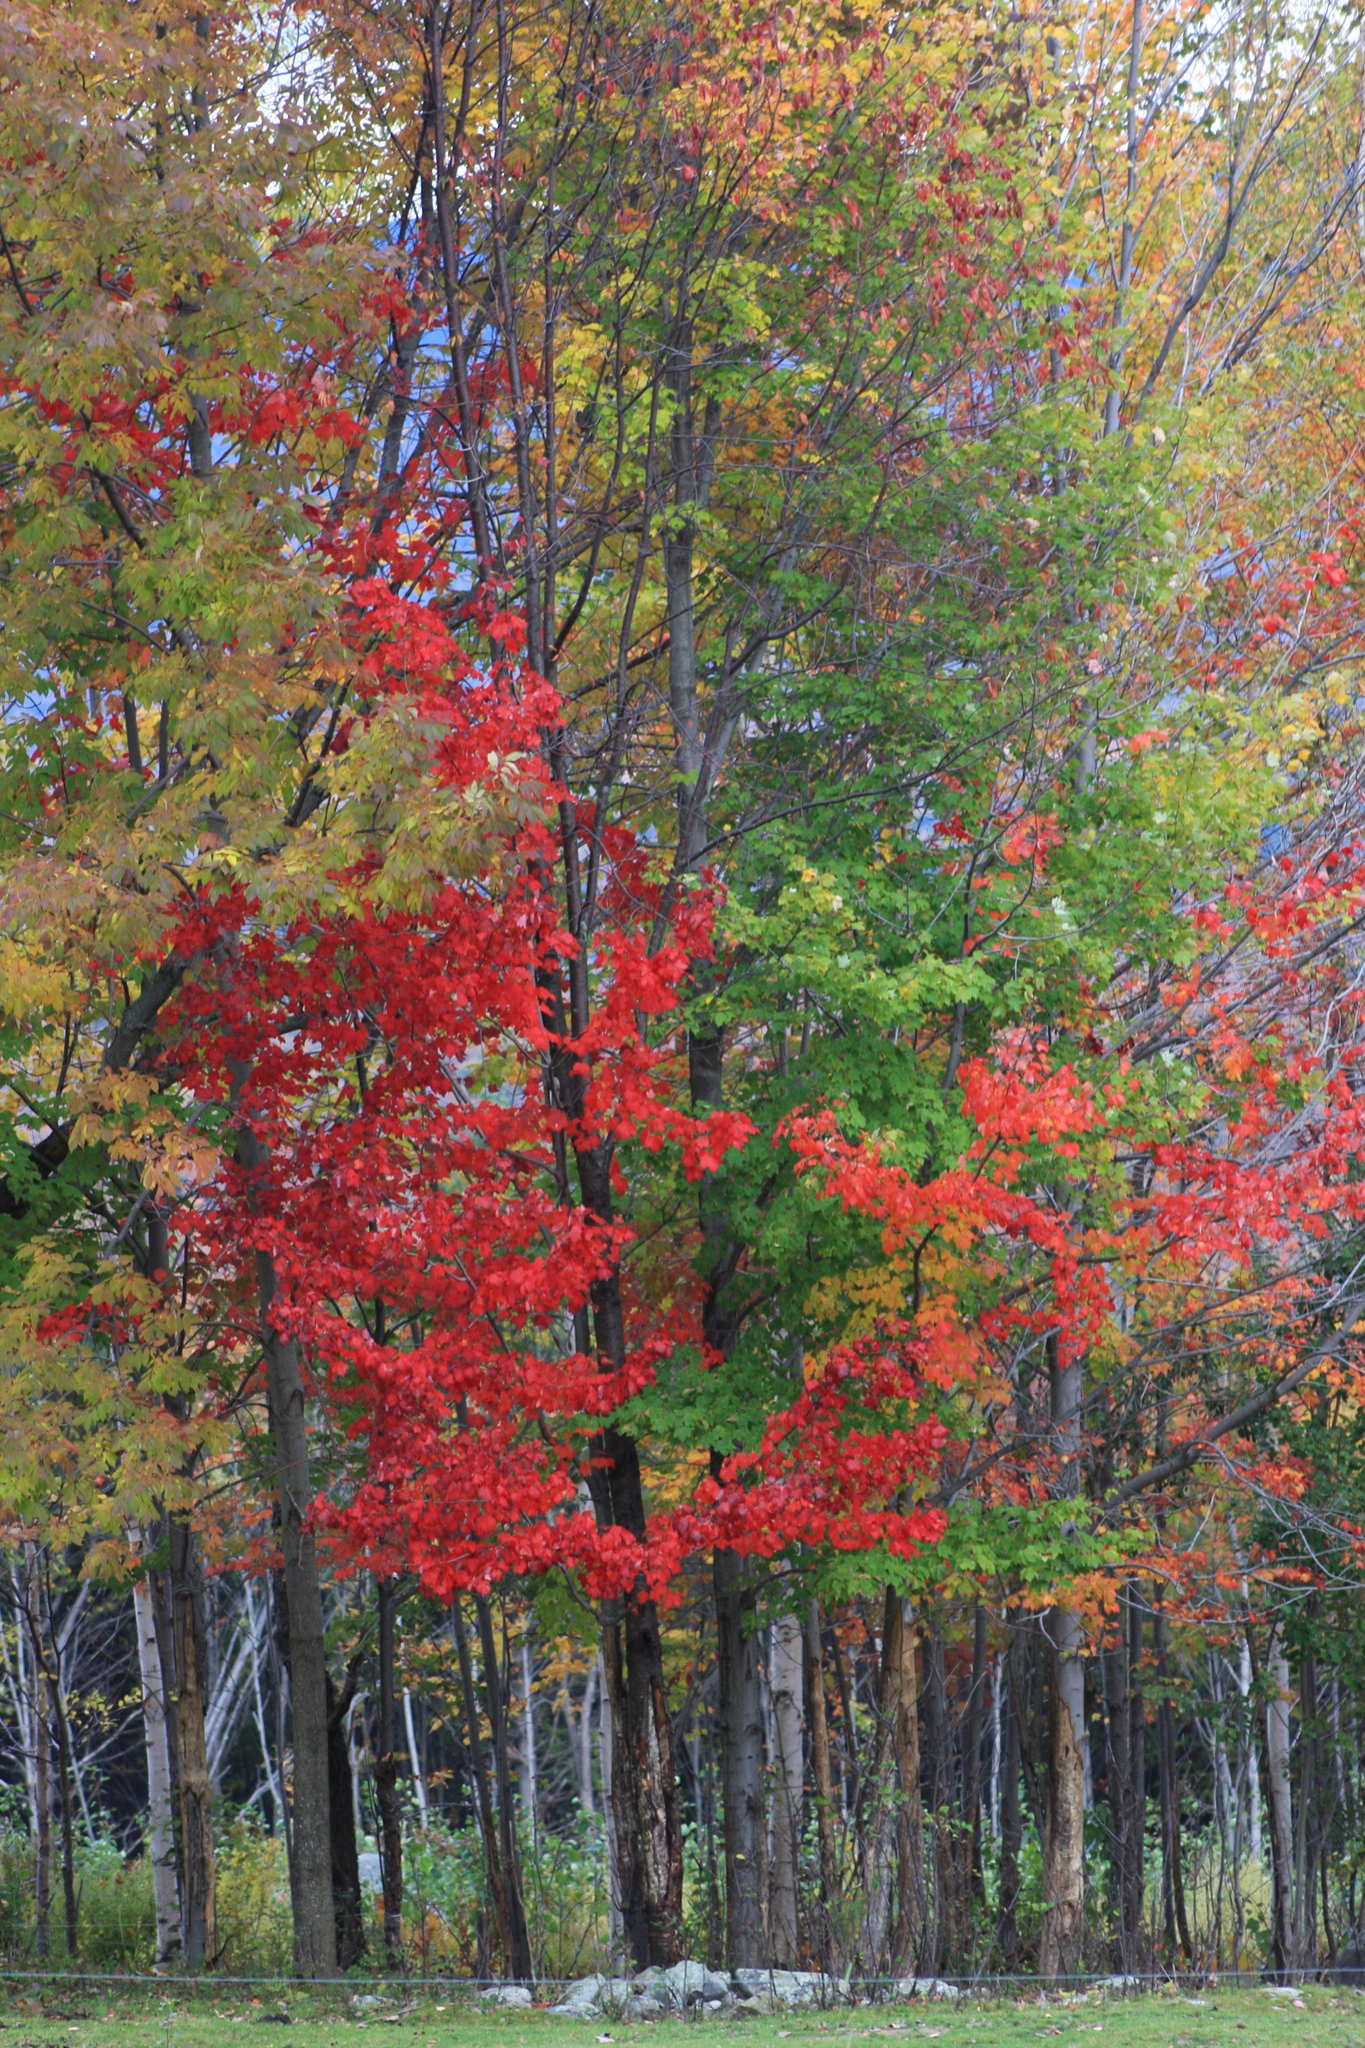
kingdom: Plantae
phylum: Tracheophyta
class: Magnoliopsida
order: Sapindales
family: Sapindaceae
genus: Acer
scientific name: Acer rubrum
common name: Red maple
